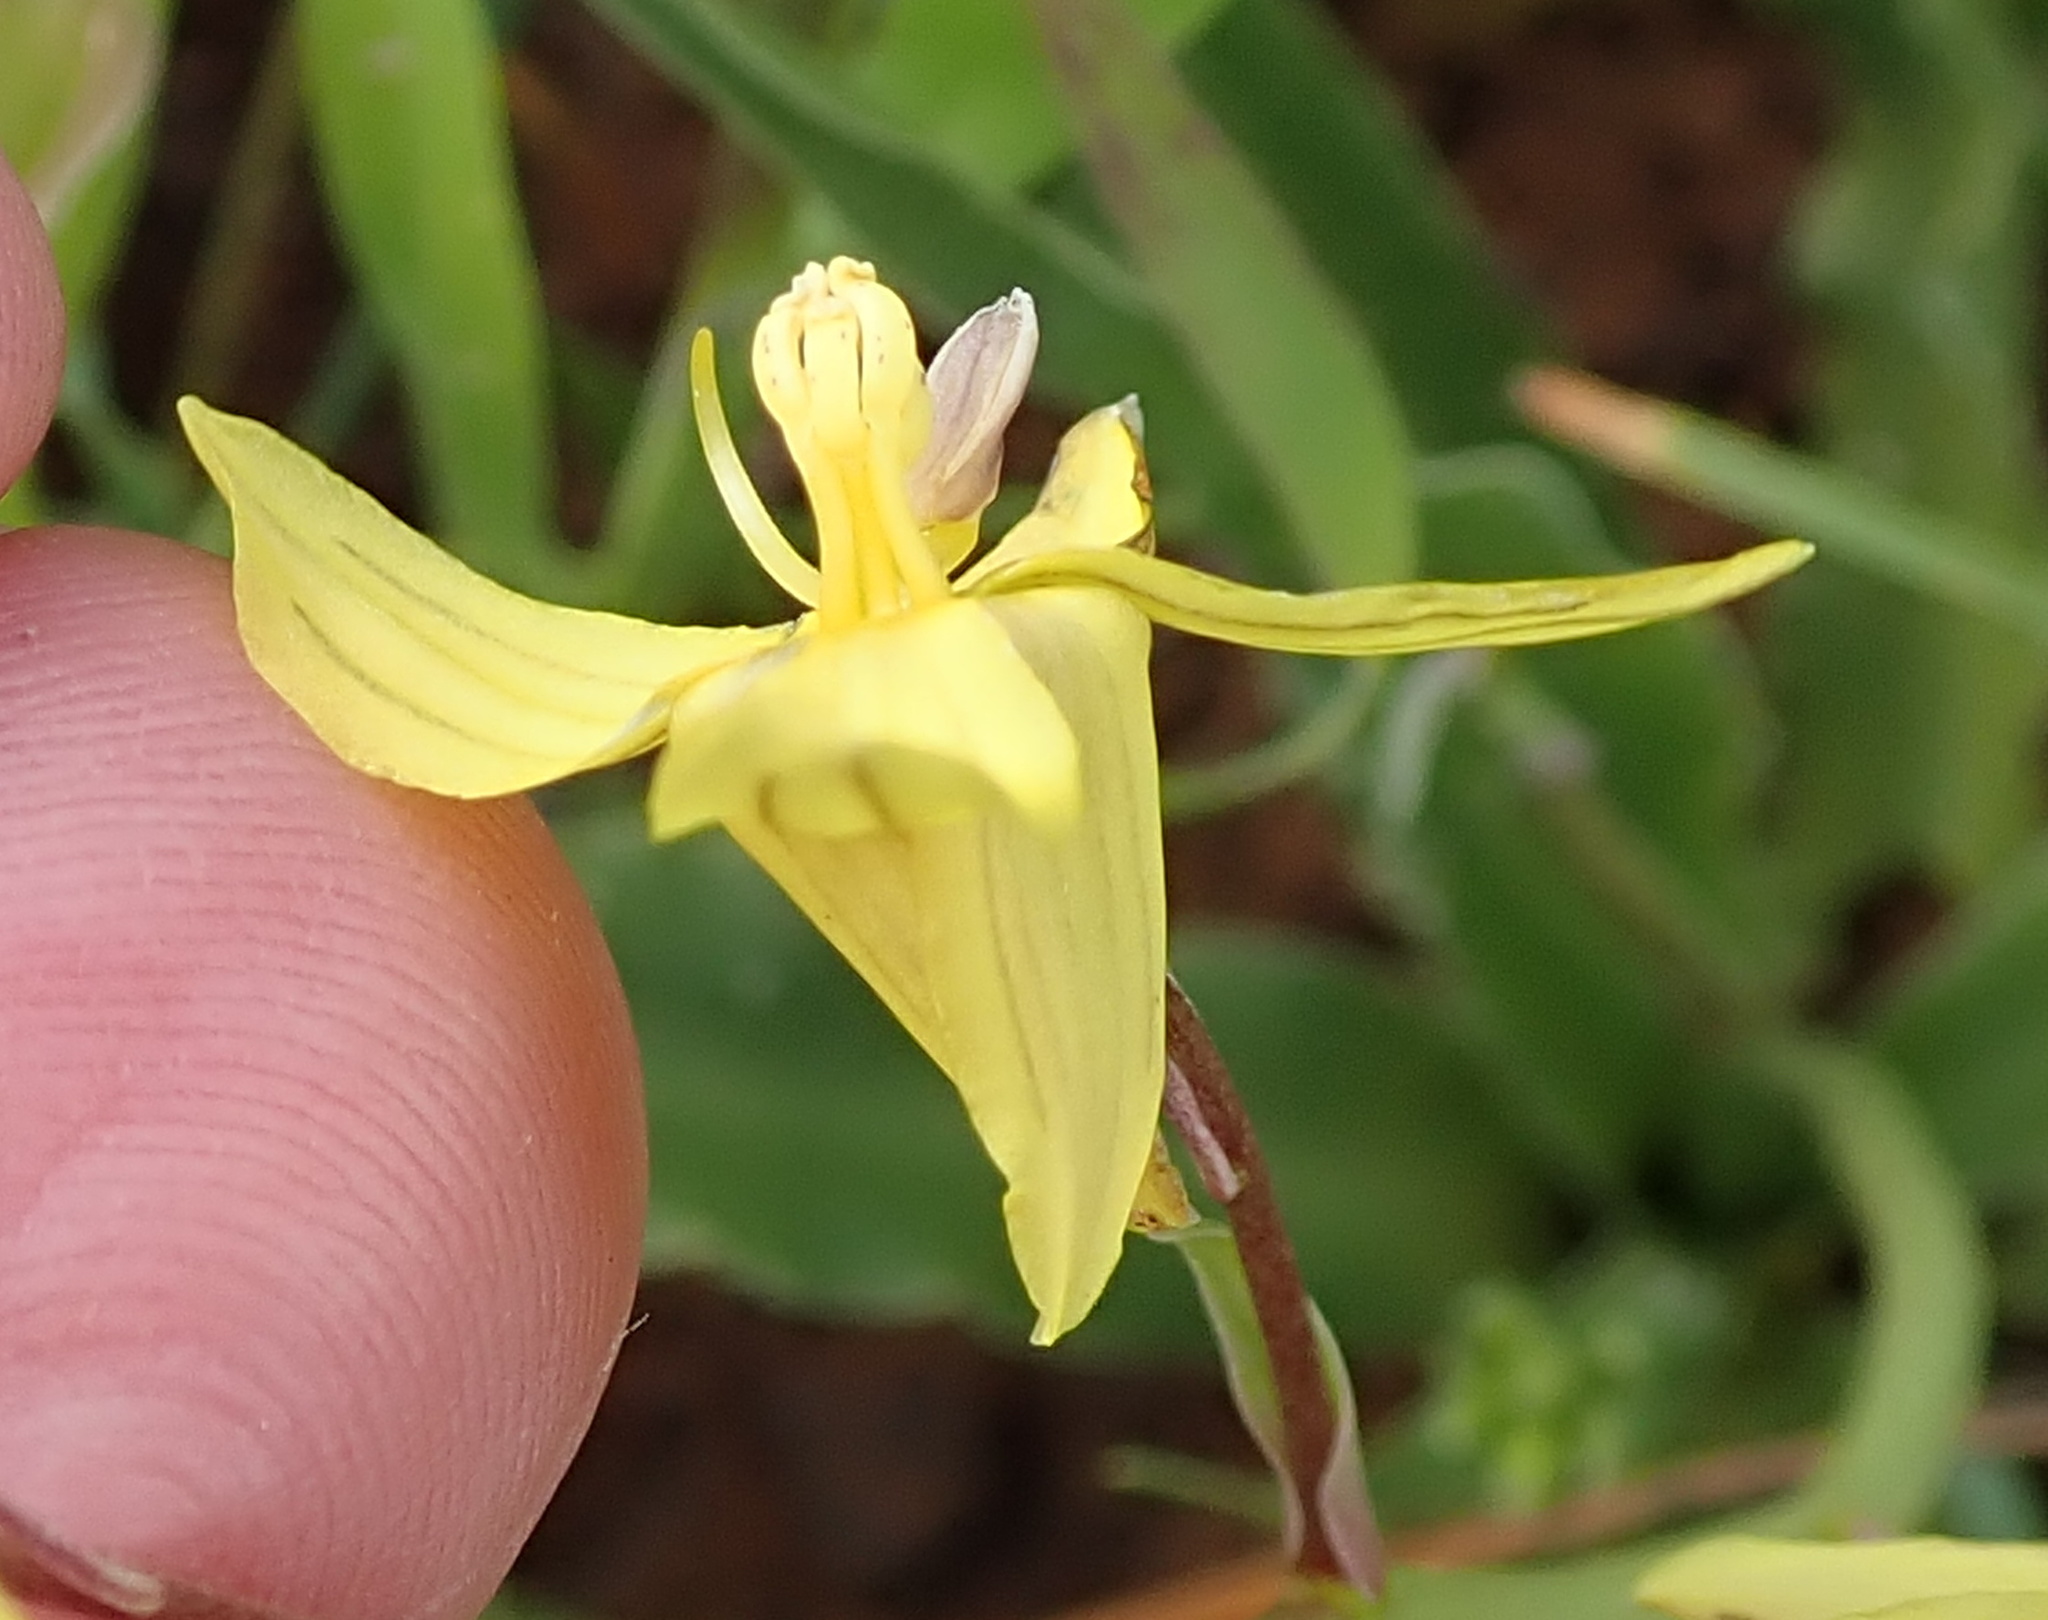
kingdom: Plantae
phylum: Tracheophyta
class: Liliopsida
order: Asparagales
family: Tecophilaeaceae
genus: Cyanella
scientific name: Cyanella lutea
